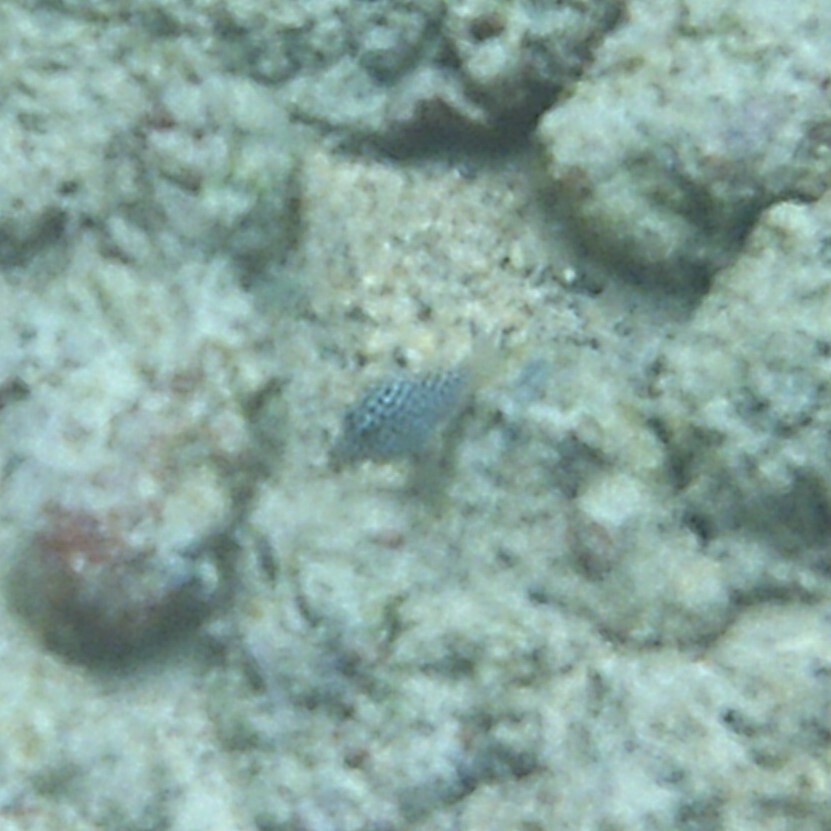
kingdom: Animalia
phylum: Chordata
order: Tetraodontiformes
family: Tetraodontidae
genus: Canthigaster
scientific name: Canthigaster jactator
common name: Hawaiian whitespotted toby
